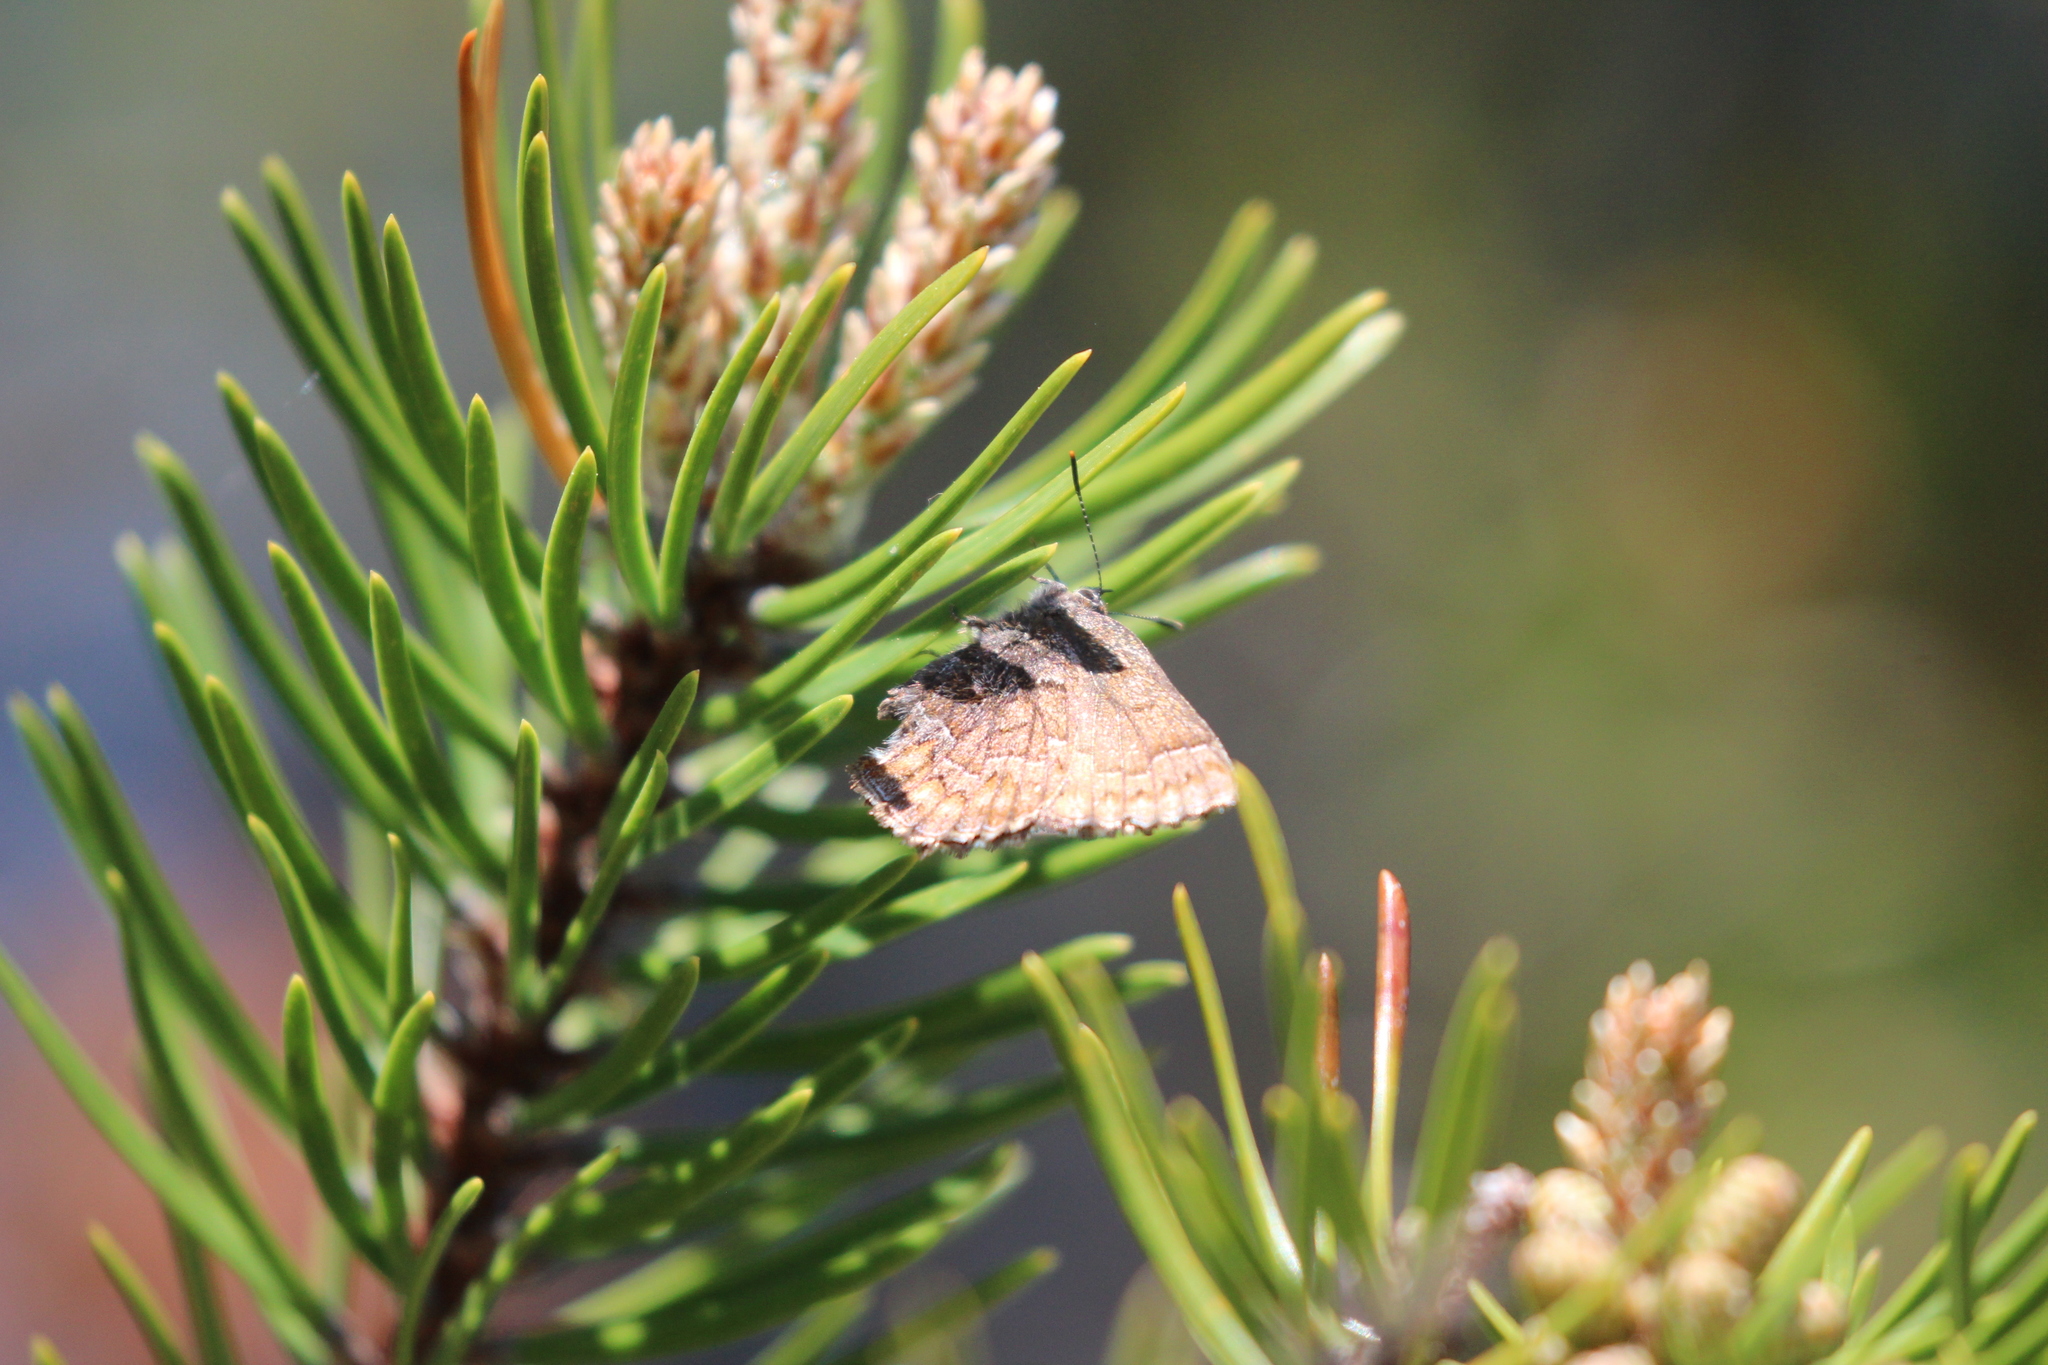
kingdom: Animalia
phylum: Arthropoda
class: Insecta
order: Lepidoptera
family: Lycaenidae
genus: Incisalia
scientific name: Incisalia niphon
